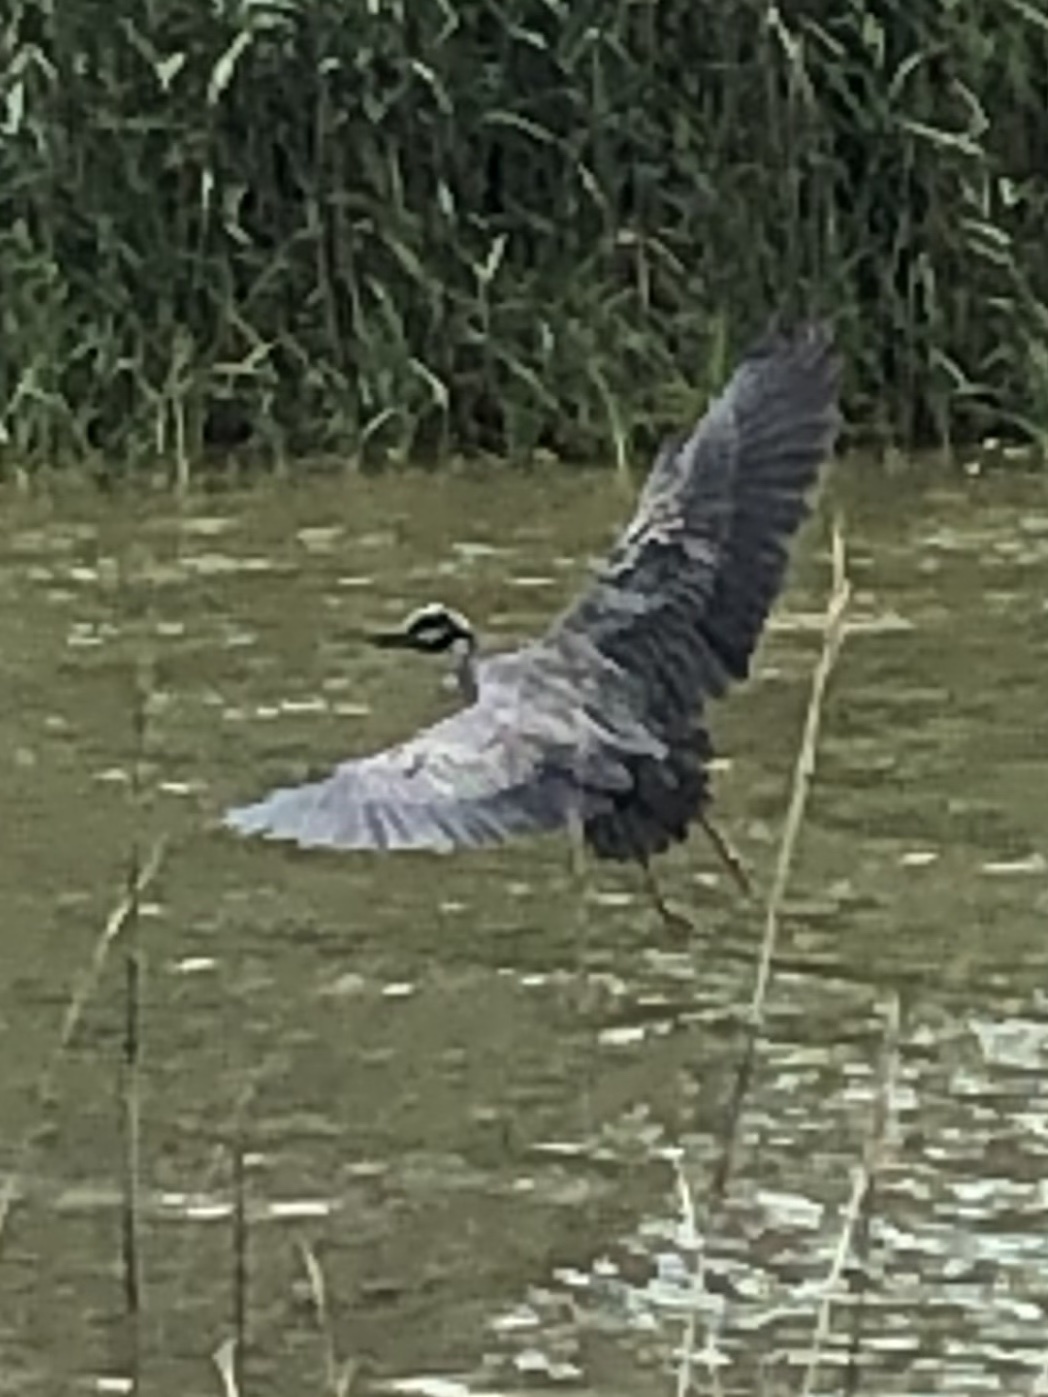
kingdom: Animalia
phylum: Chordata
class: Aves
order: Pelecaniformes
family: Ardeidae
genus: Nyctanassa
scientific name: Nyctanassa violacea
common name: Yellow-crowned night heron
